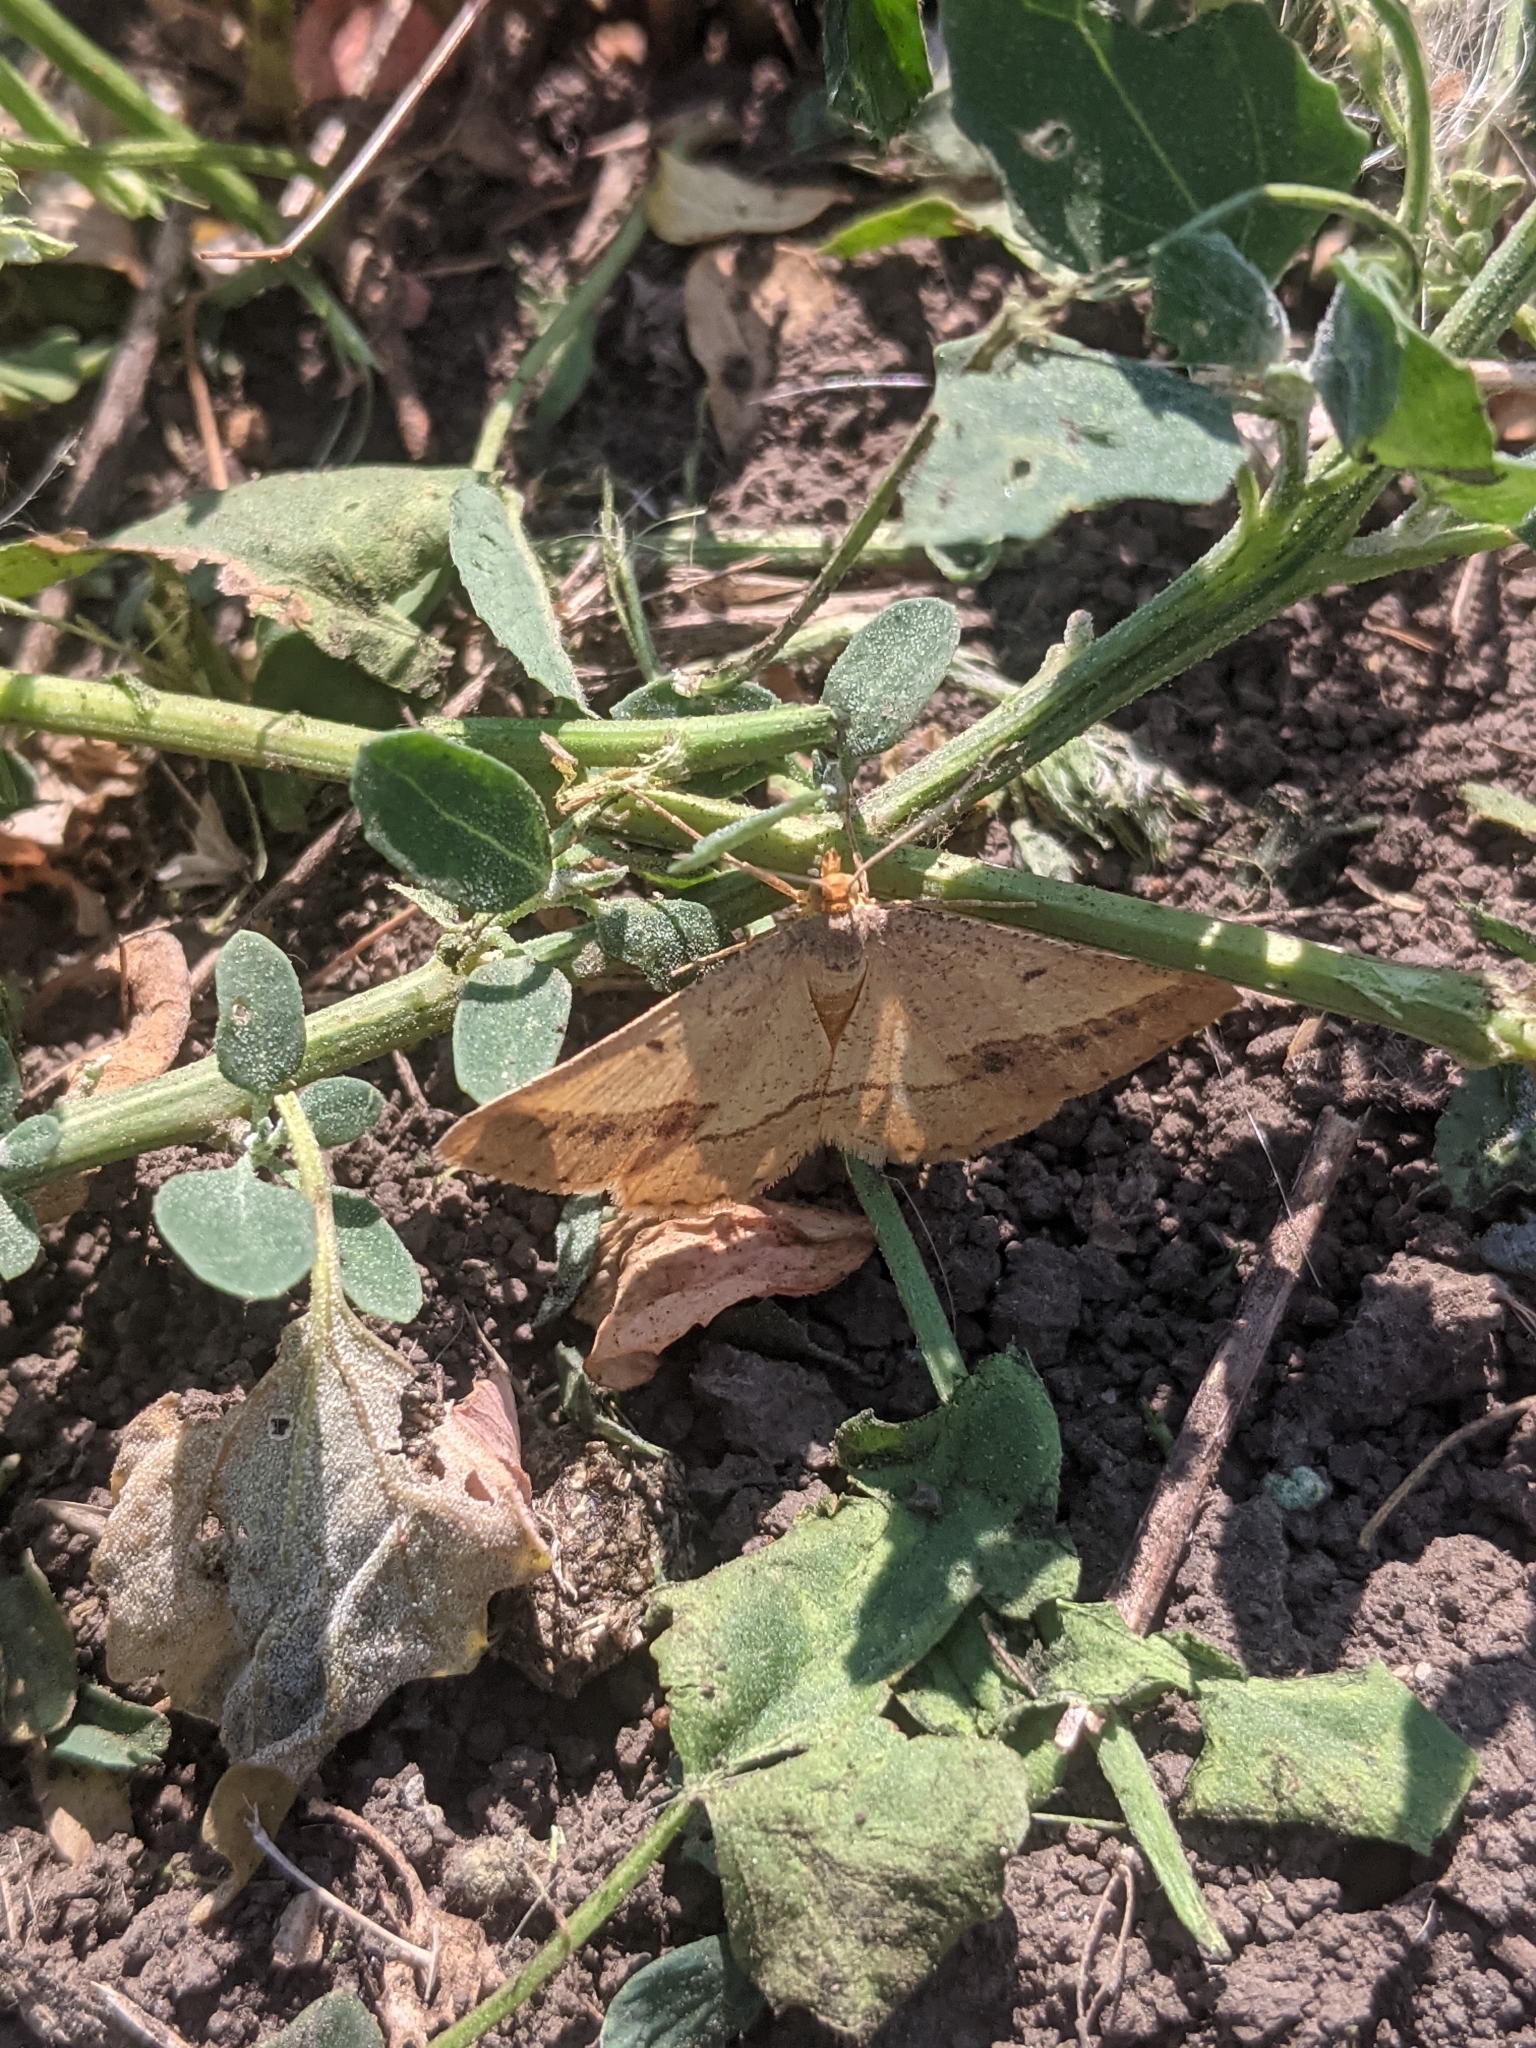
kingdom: Animalia
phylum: Arthropoda
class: Insecta
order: Lepidoptera
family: Geometridae
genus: Tephrina
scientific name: Tephrina arenacearia
